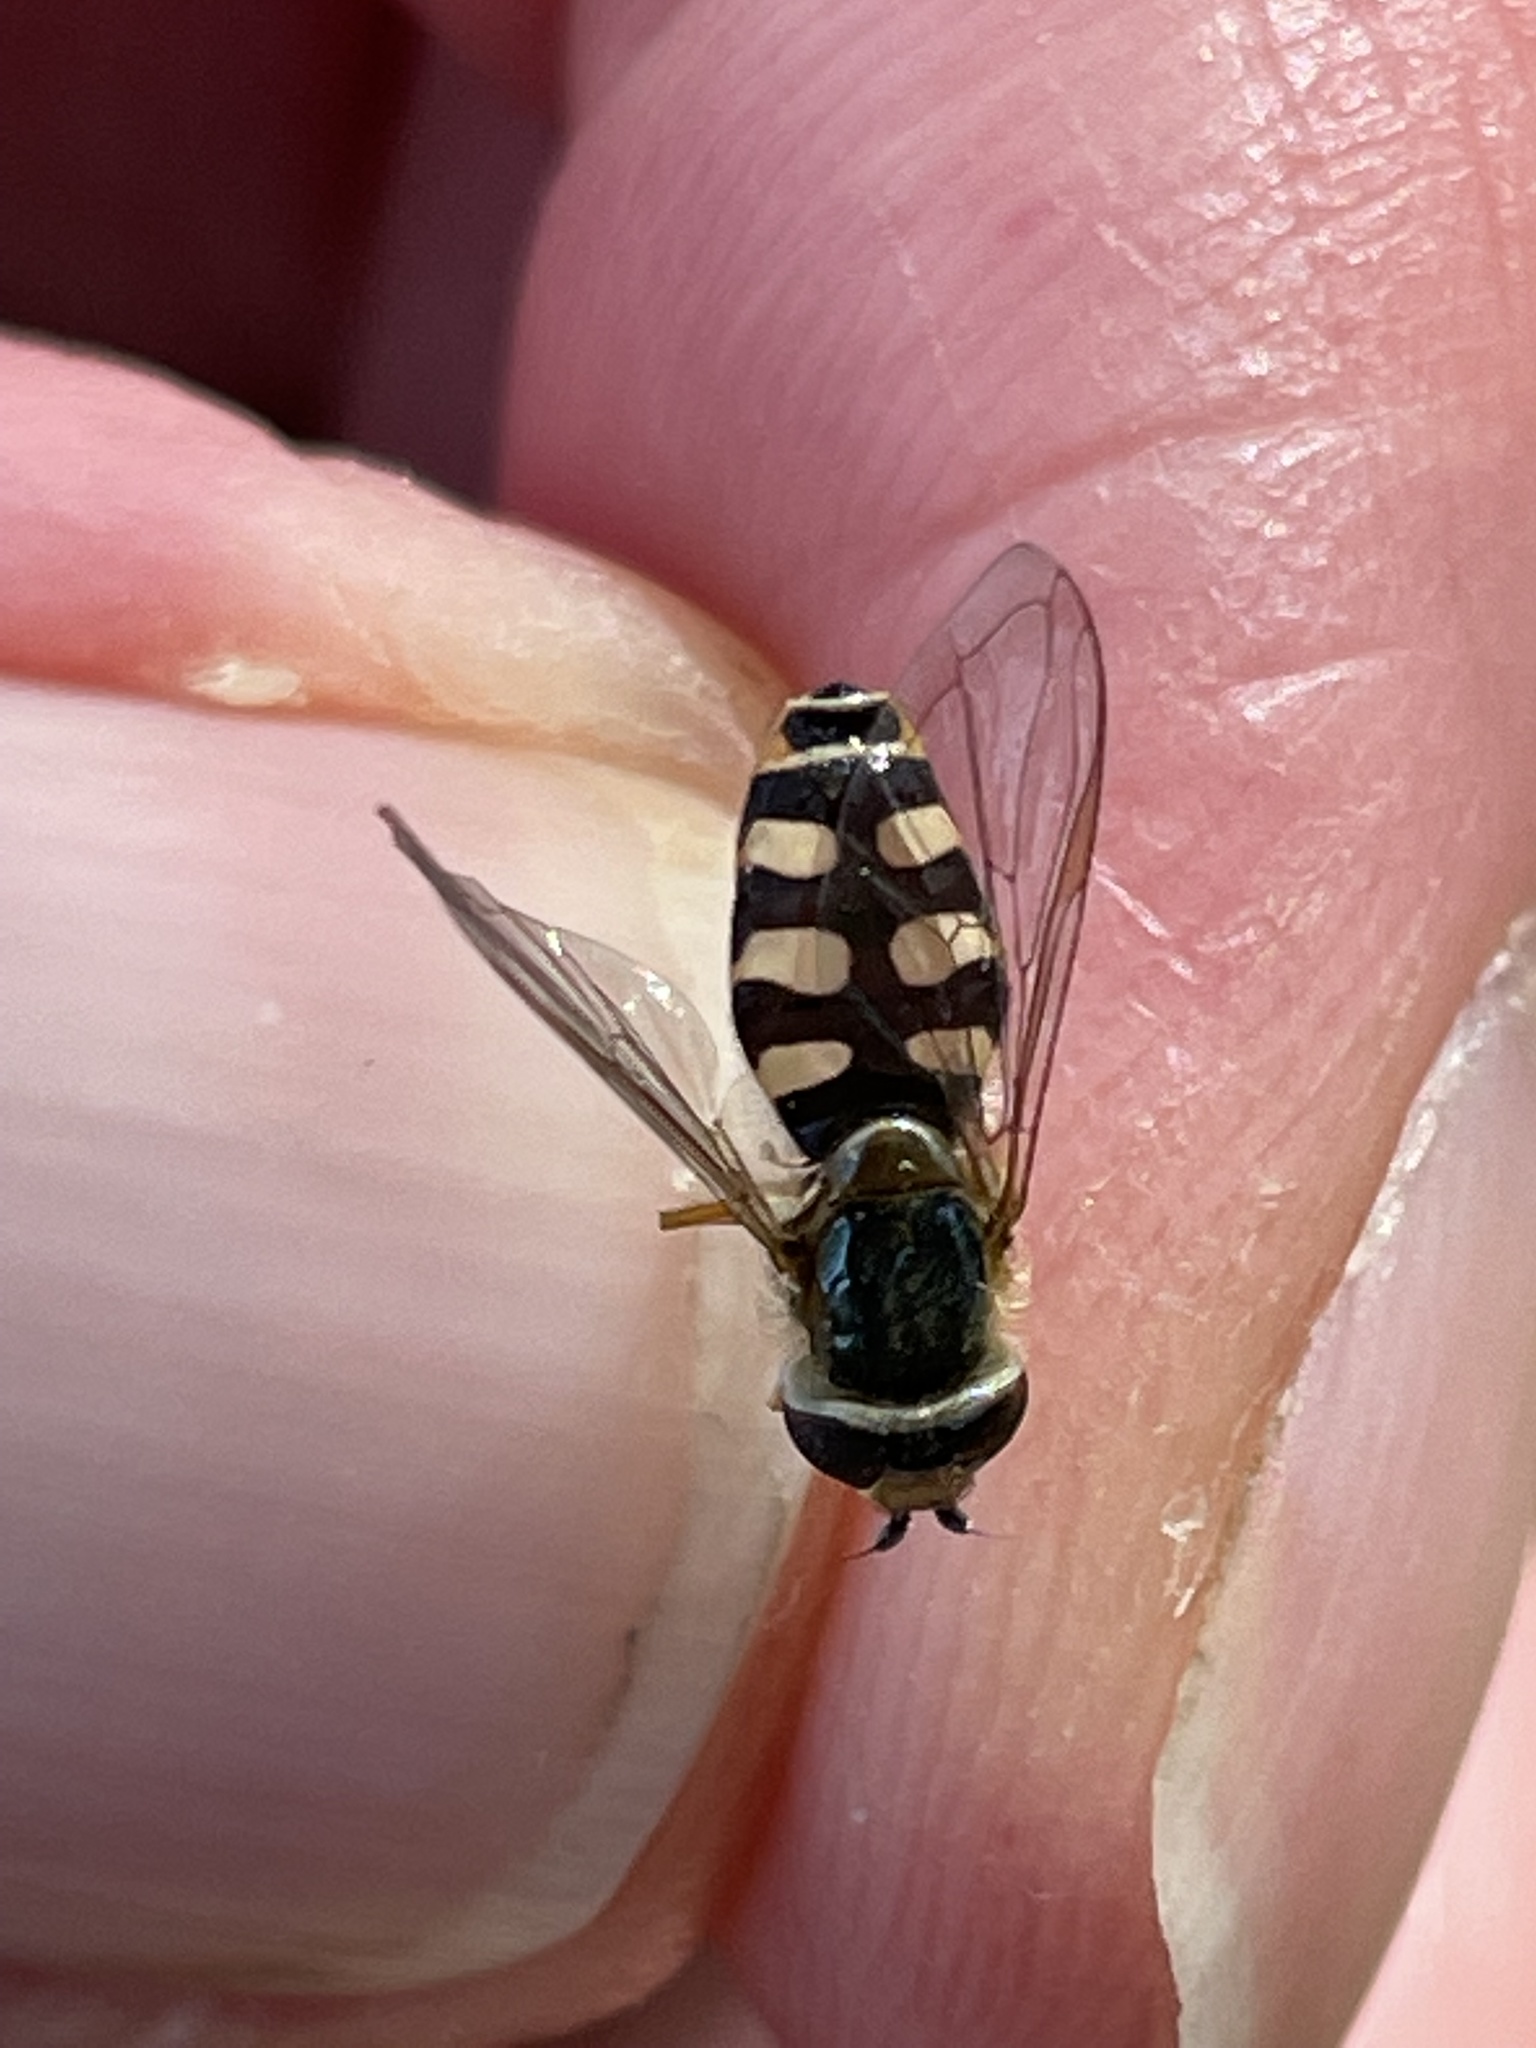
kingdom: Animalia
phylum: Arthropoda
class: Insecta
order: Diptera
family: Syrphidae
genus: Eupeodes
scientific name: Eupeodes corollae
